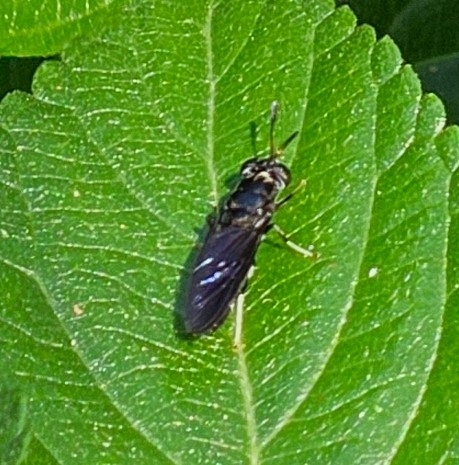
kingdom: Animalia
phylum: Arthropoda
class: Insecta
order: Diptera
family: Stratiomyidae
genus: Hermetia
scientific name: Hermetia illucens
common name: Black soldier fly
